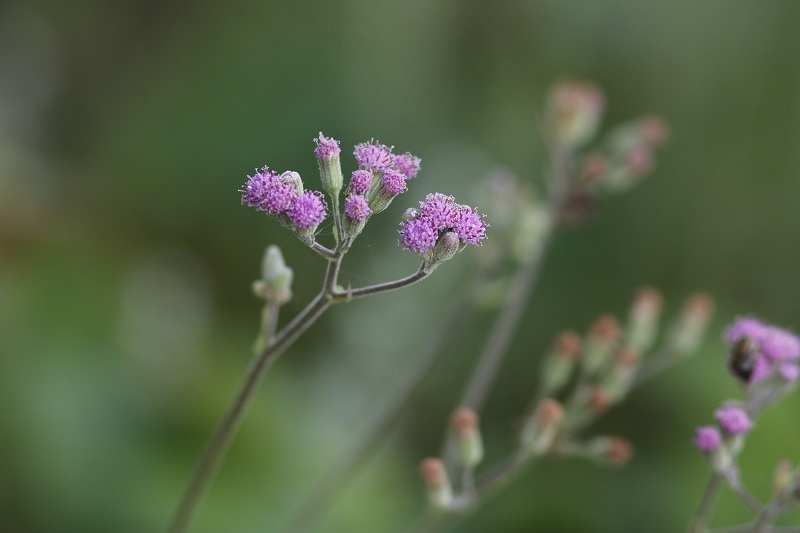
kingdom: Plantae
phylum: Tracheophyta
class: Magnoliopsida
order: Asterales
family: Asteraceae
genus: Senecio
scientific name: Senecio purpureus
